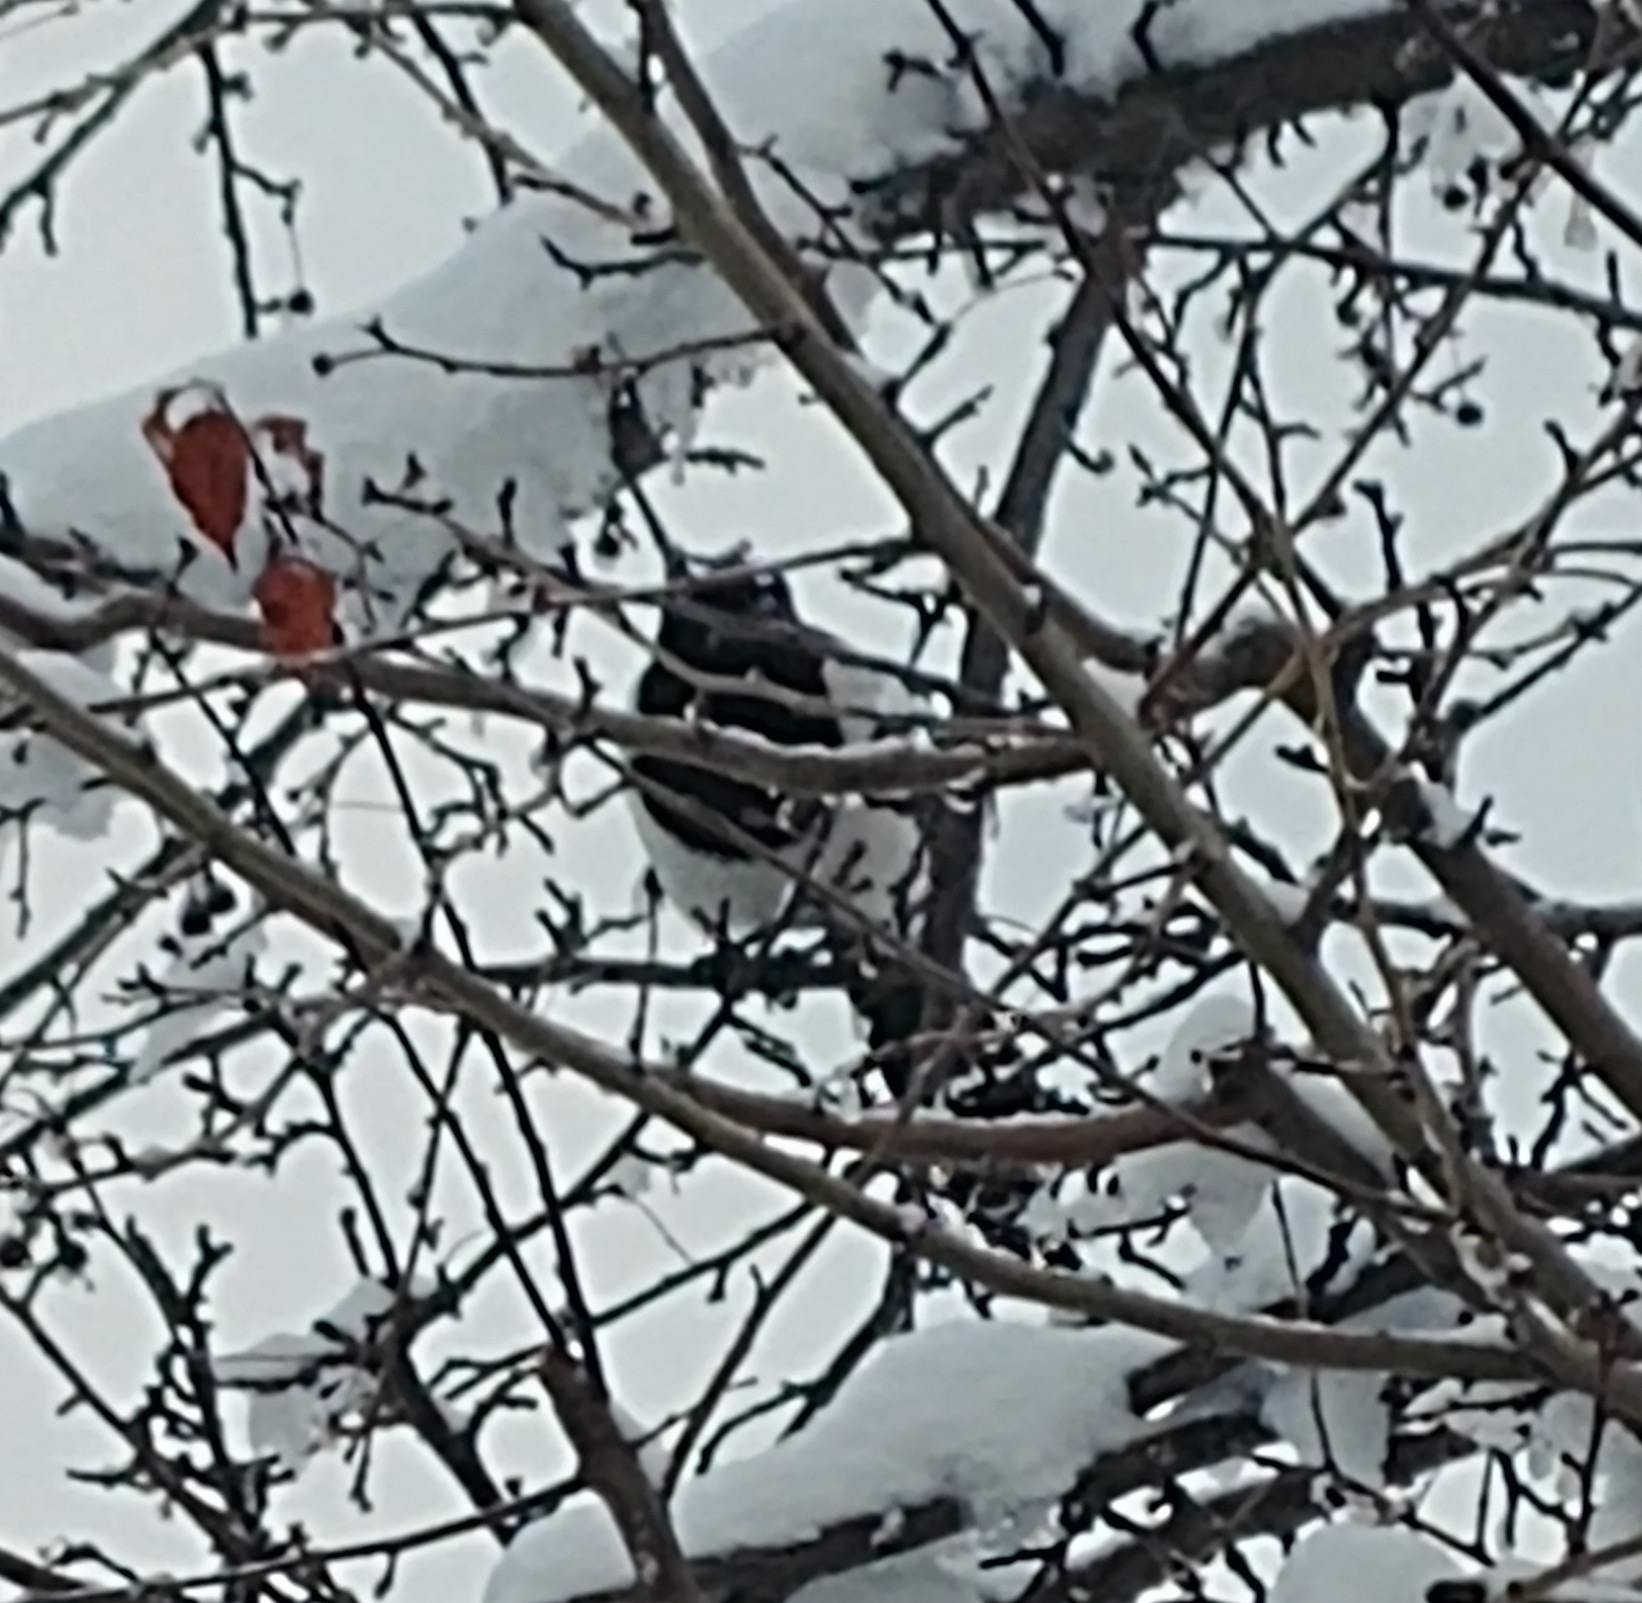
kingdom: Animalia
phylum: Chordata
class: Aves
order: Passeriformes
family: Corvidae
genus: Pica
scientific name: Pica hudsonia
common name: Black-billed magpie
